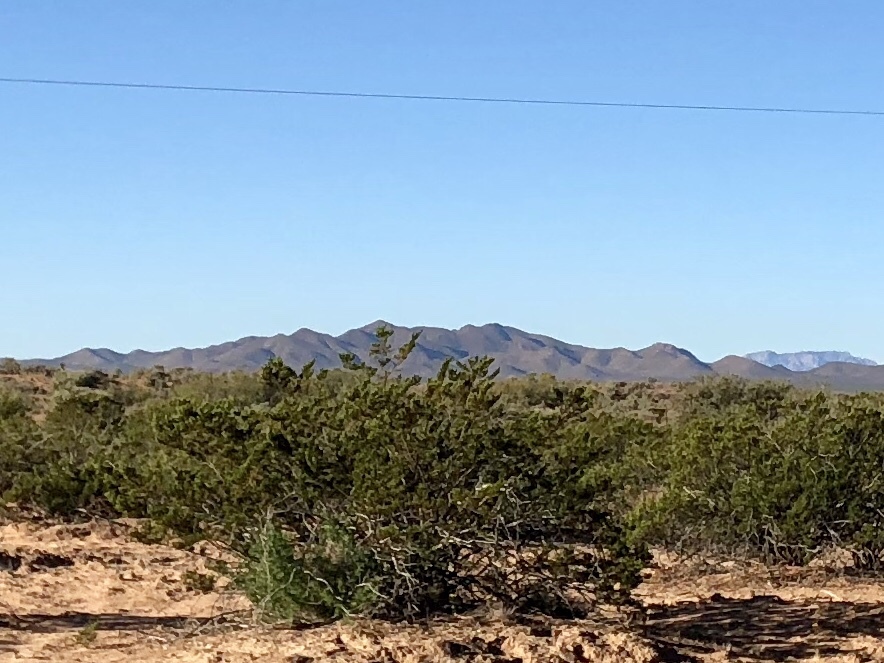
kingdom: Plantae
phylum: Tracheophyta
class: Magnoliopsida
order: Zygophyllales
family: Zygophyllaceae
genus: Larrea
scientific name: Larrea tridentata
